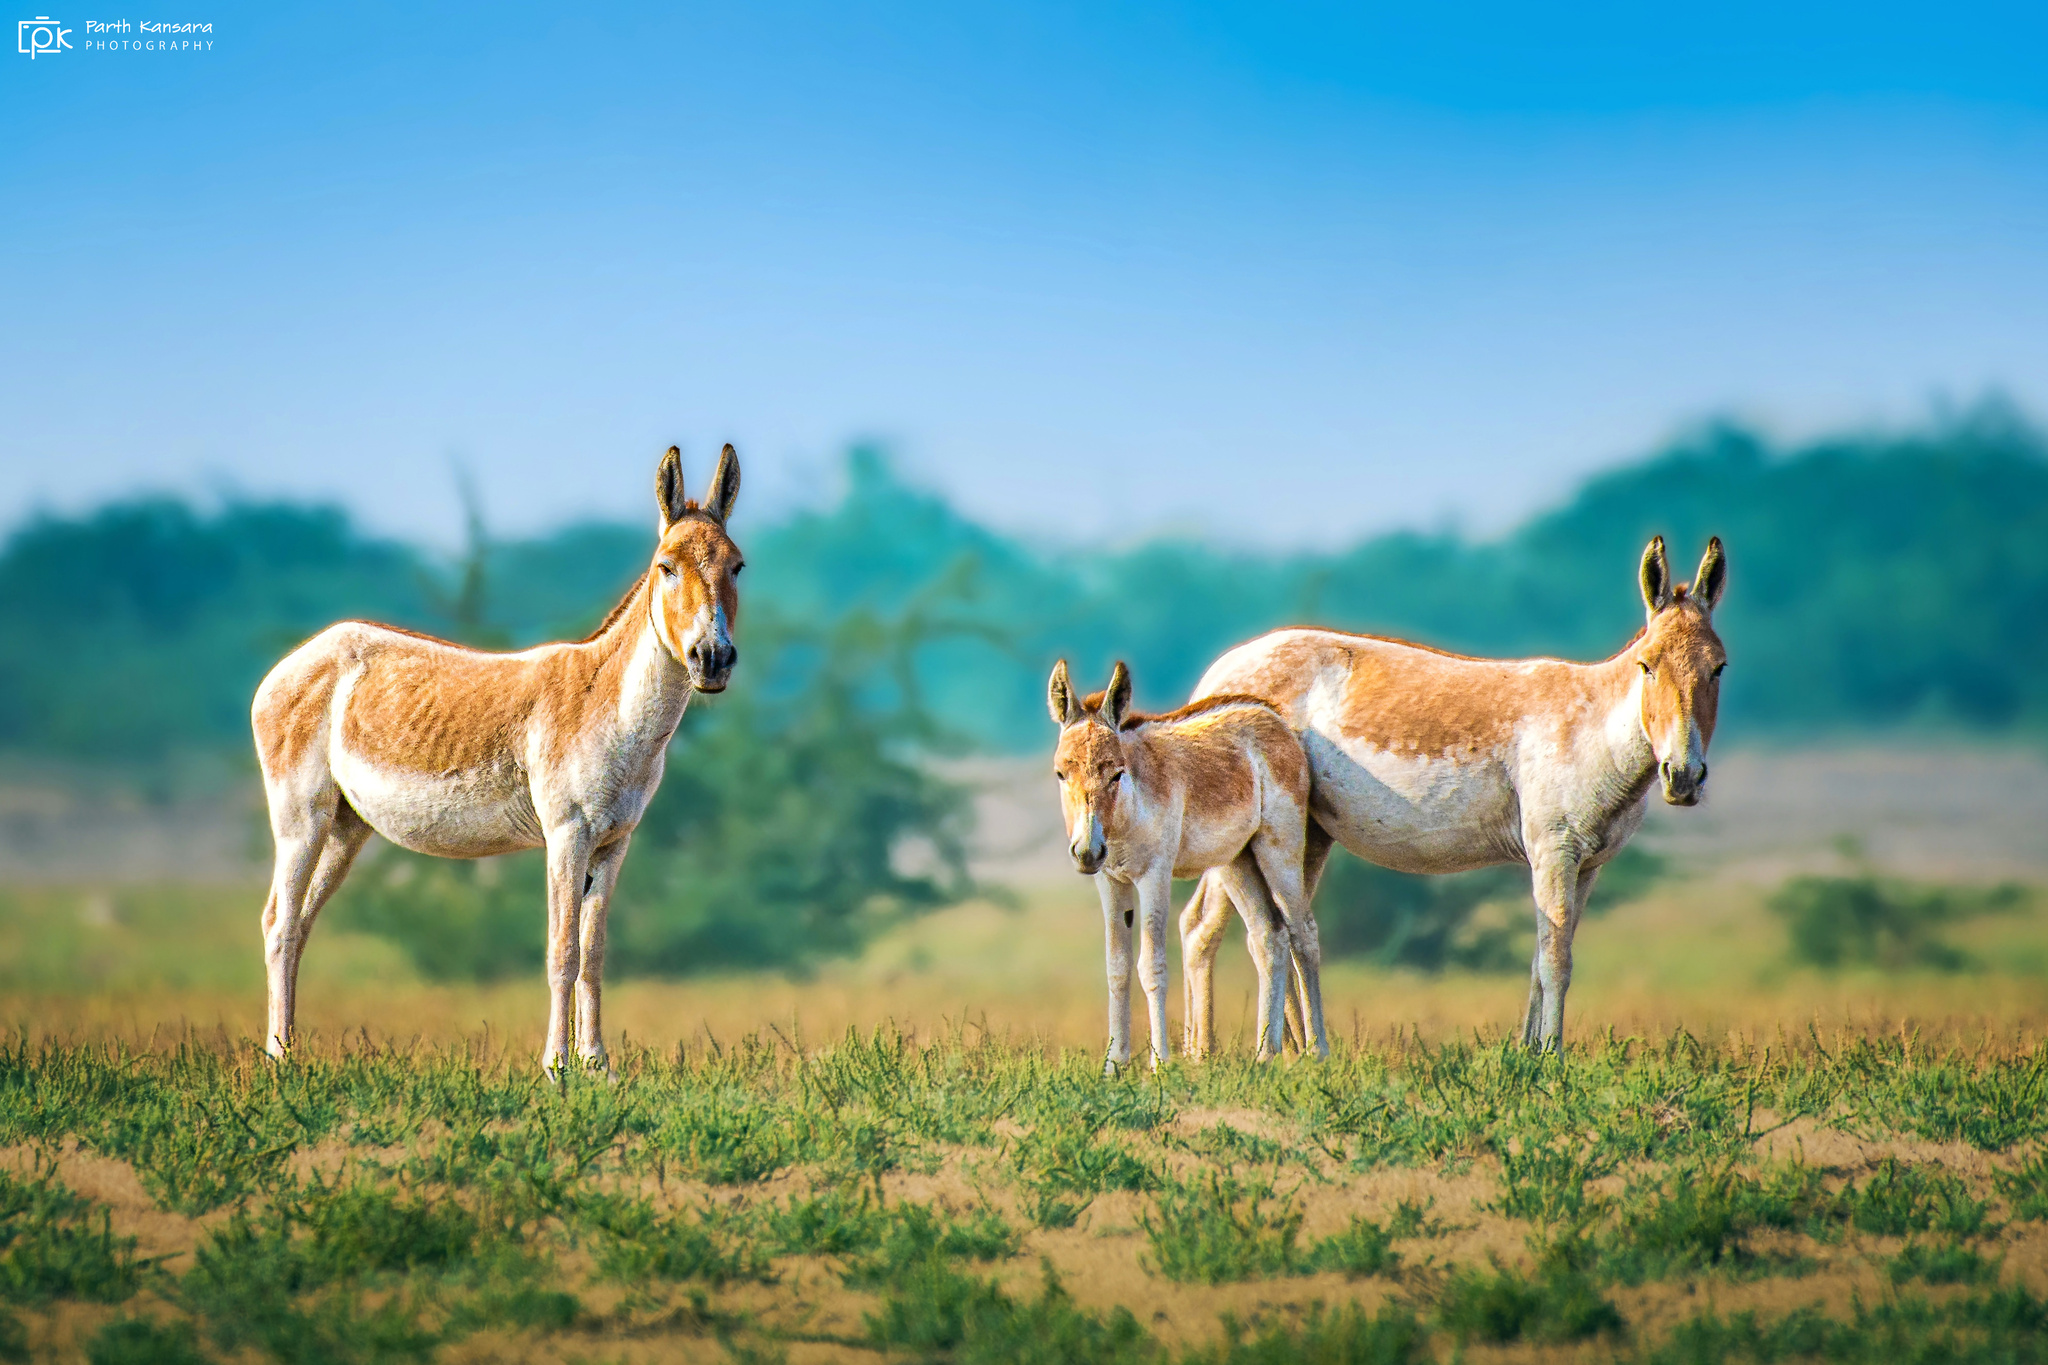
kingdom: Animalia
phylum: Chordata
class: Mammalia
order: Perissodactyla
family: Equidae
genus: Equus
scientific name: Equus khur
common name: Indian wild ass
